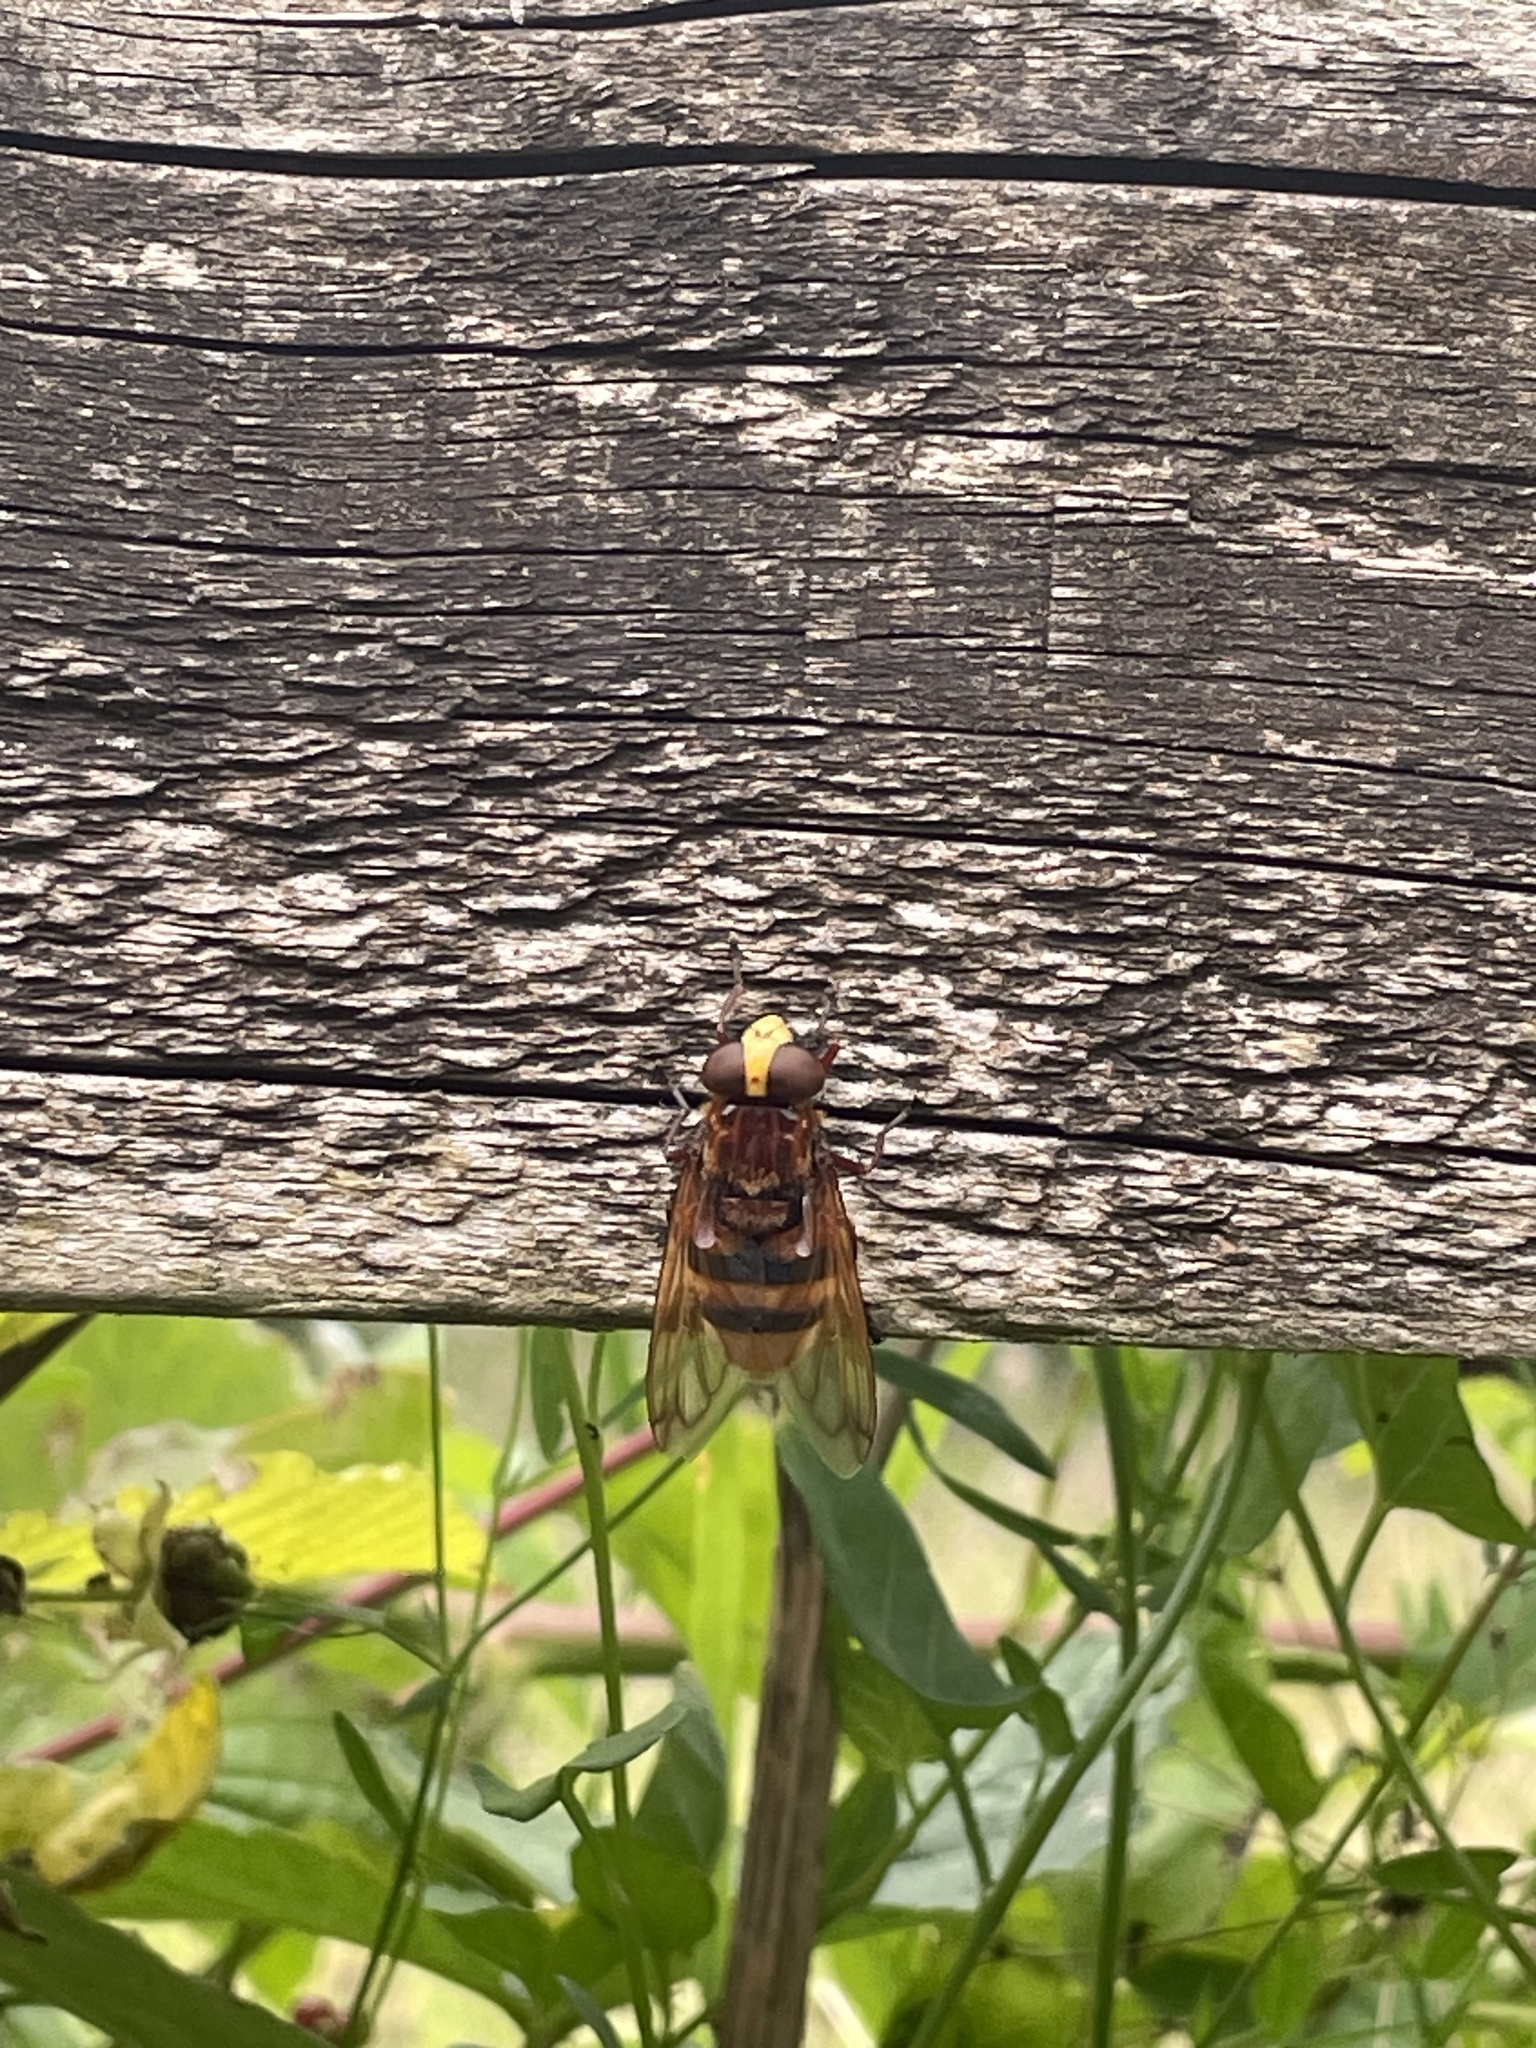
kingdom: Animalia
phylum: Arthropoda
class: Insecta
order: Diptera
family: Syrphidae
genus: Volucella
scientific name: Volucella zonaria
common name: Hornet hoverfly
